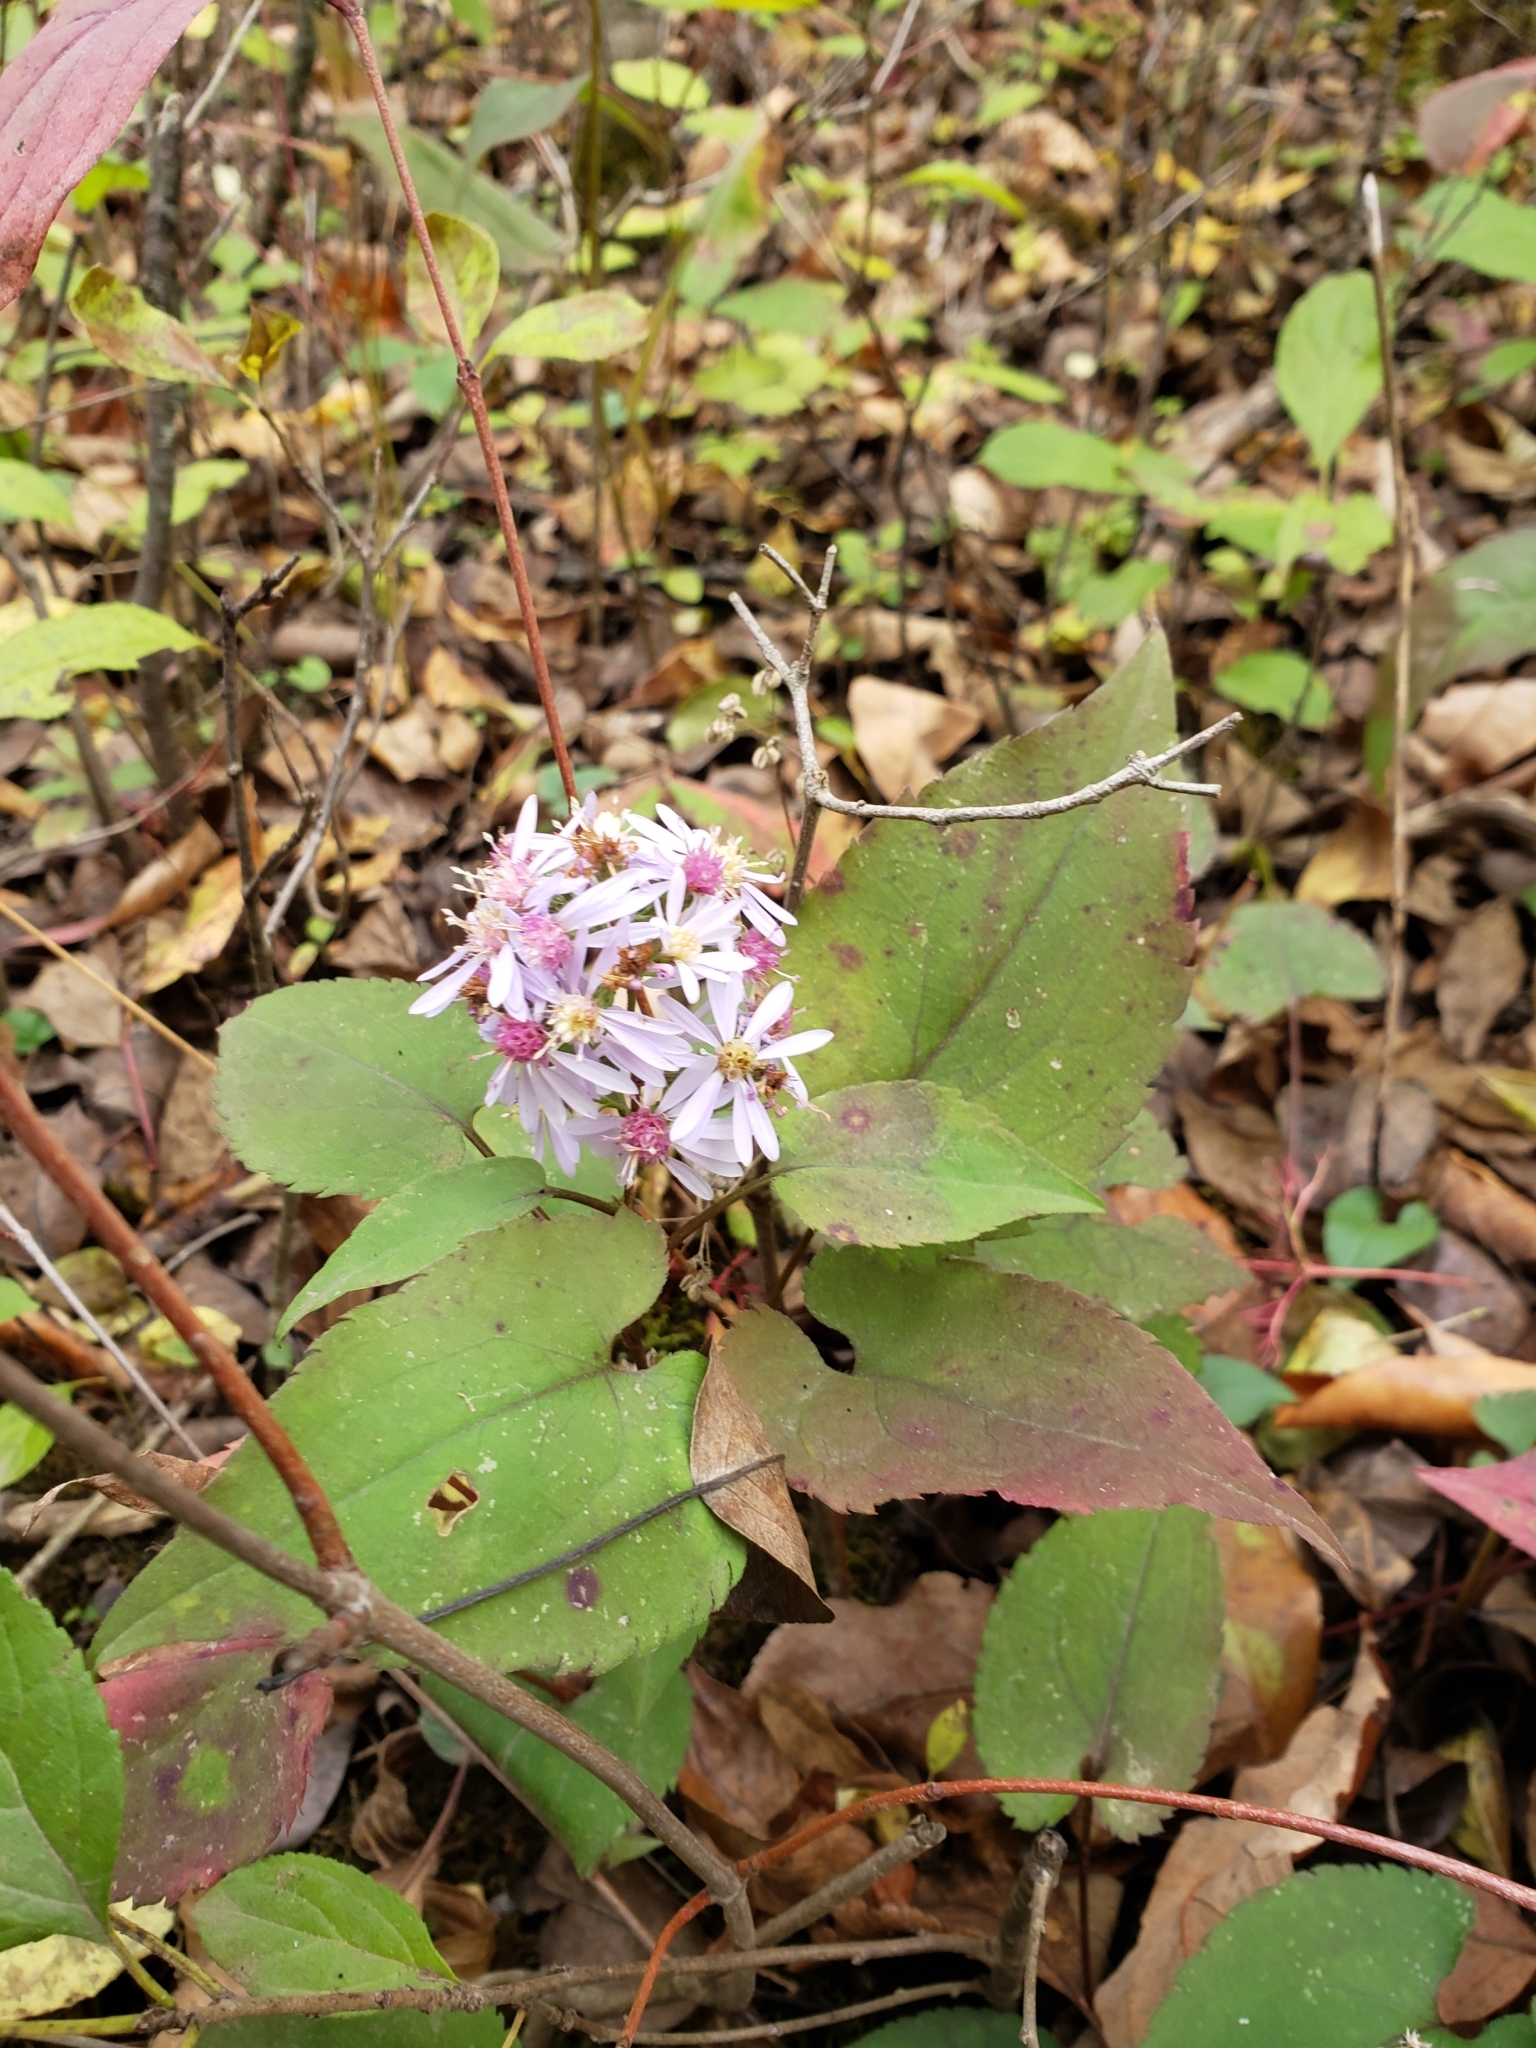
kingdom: Plantae
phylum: Tracheophyta
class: Magnoliopsida
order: Asterales
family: Asteraceae
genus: Symphyotrichum
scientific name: Symphyotrichum cordifolium
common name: Beeweed
